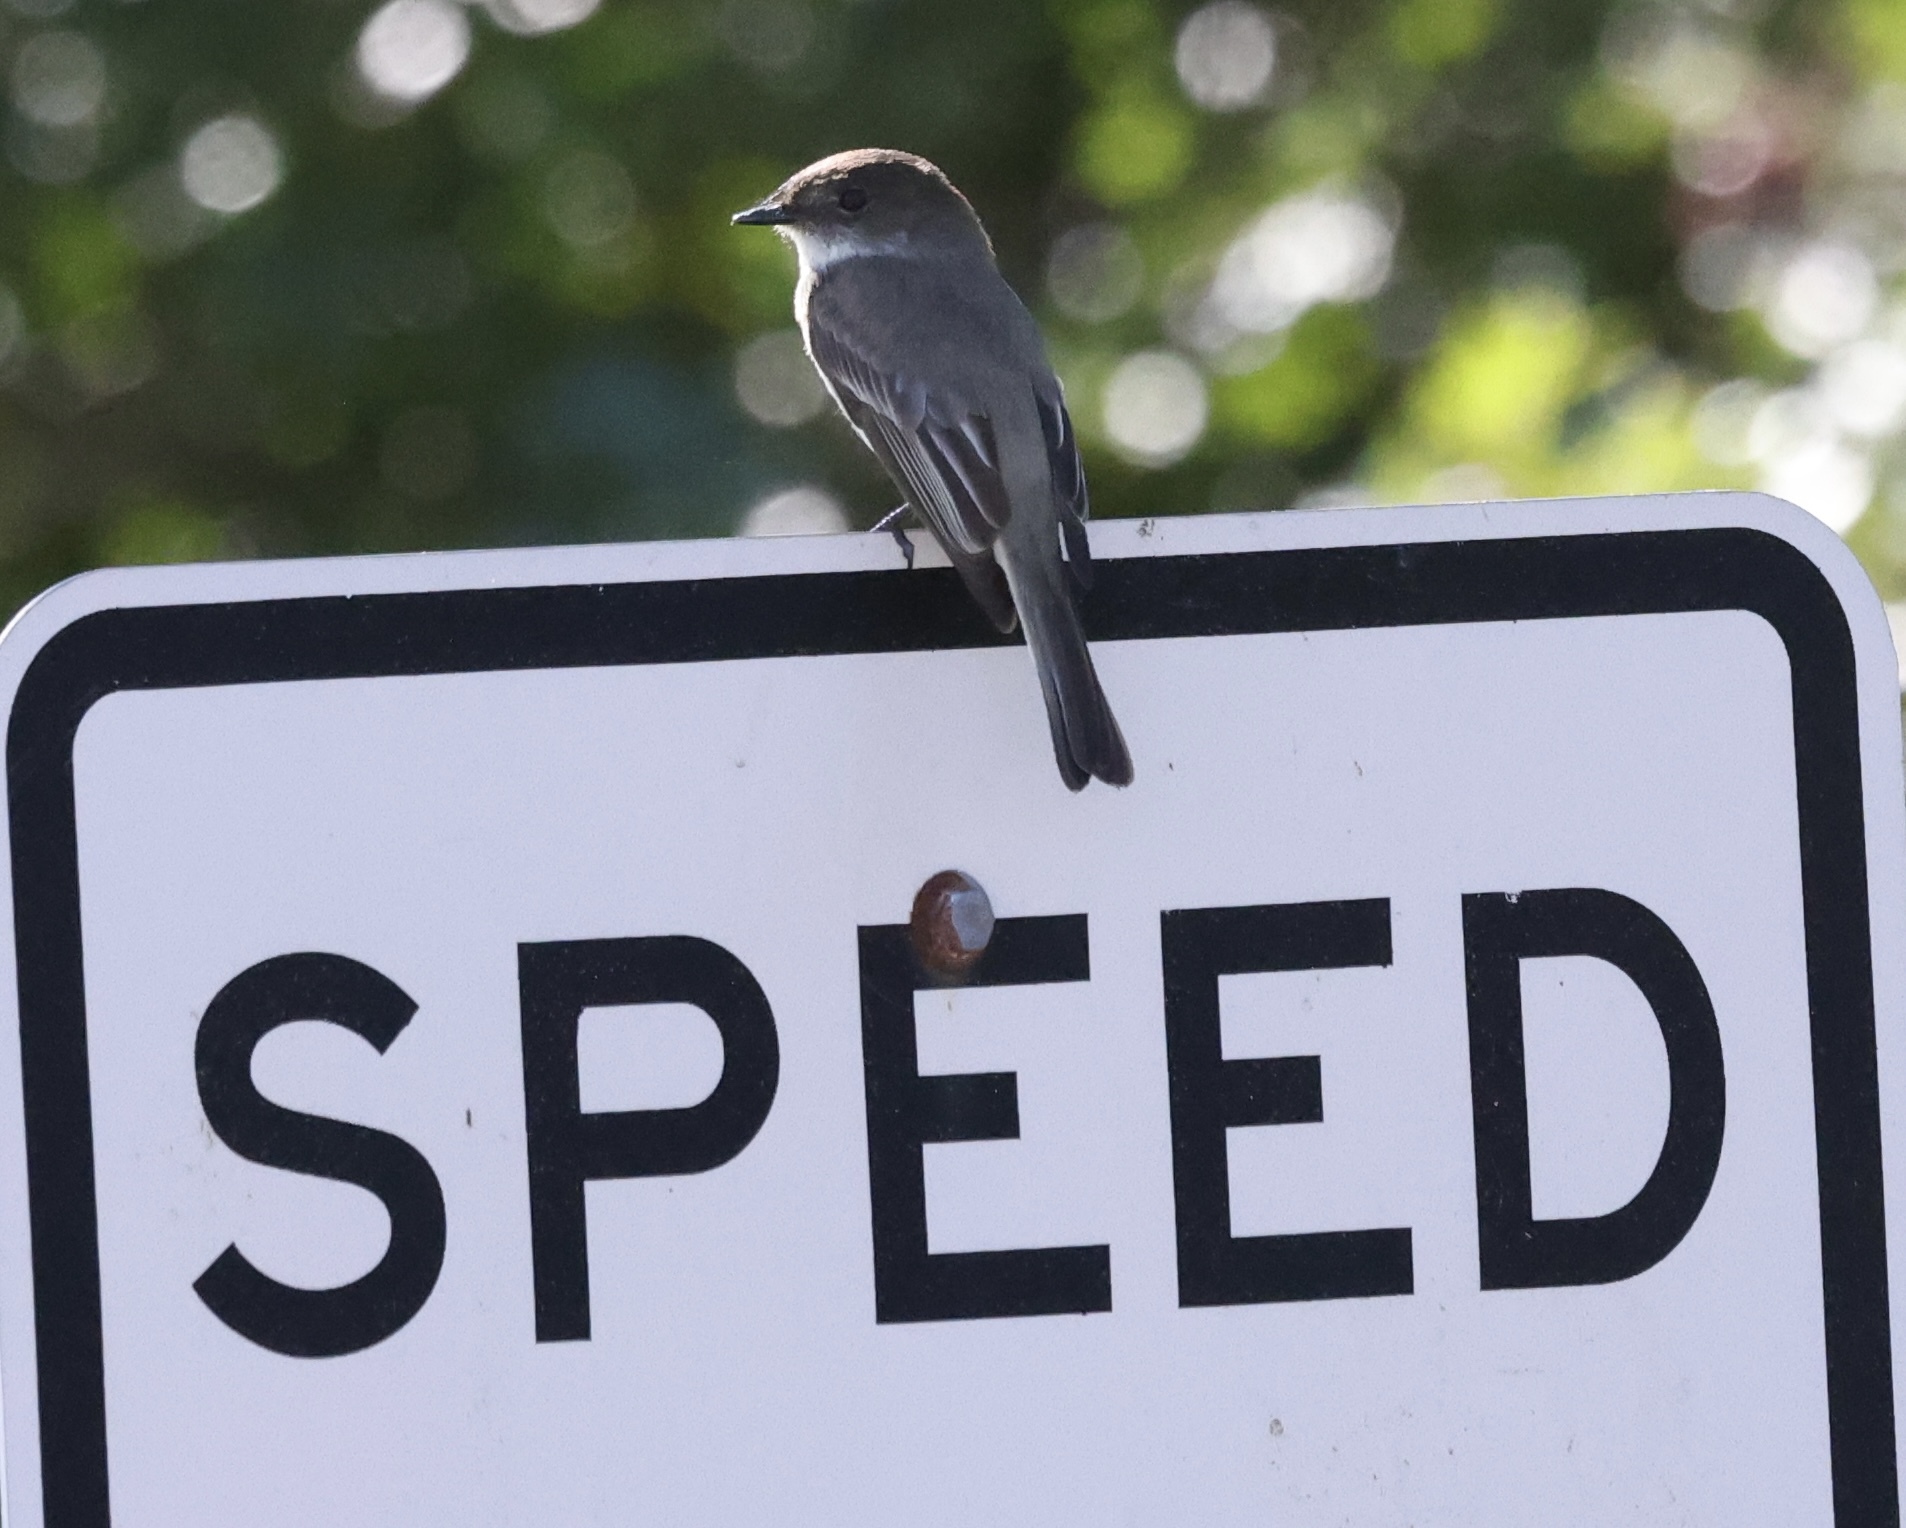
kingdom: Animalia
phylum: Chordata
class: Aves
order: Passeriformes
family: Tyrannidae
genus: Sayornis
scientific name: Sayornis phoebe
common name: Eastern phoebe
